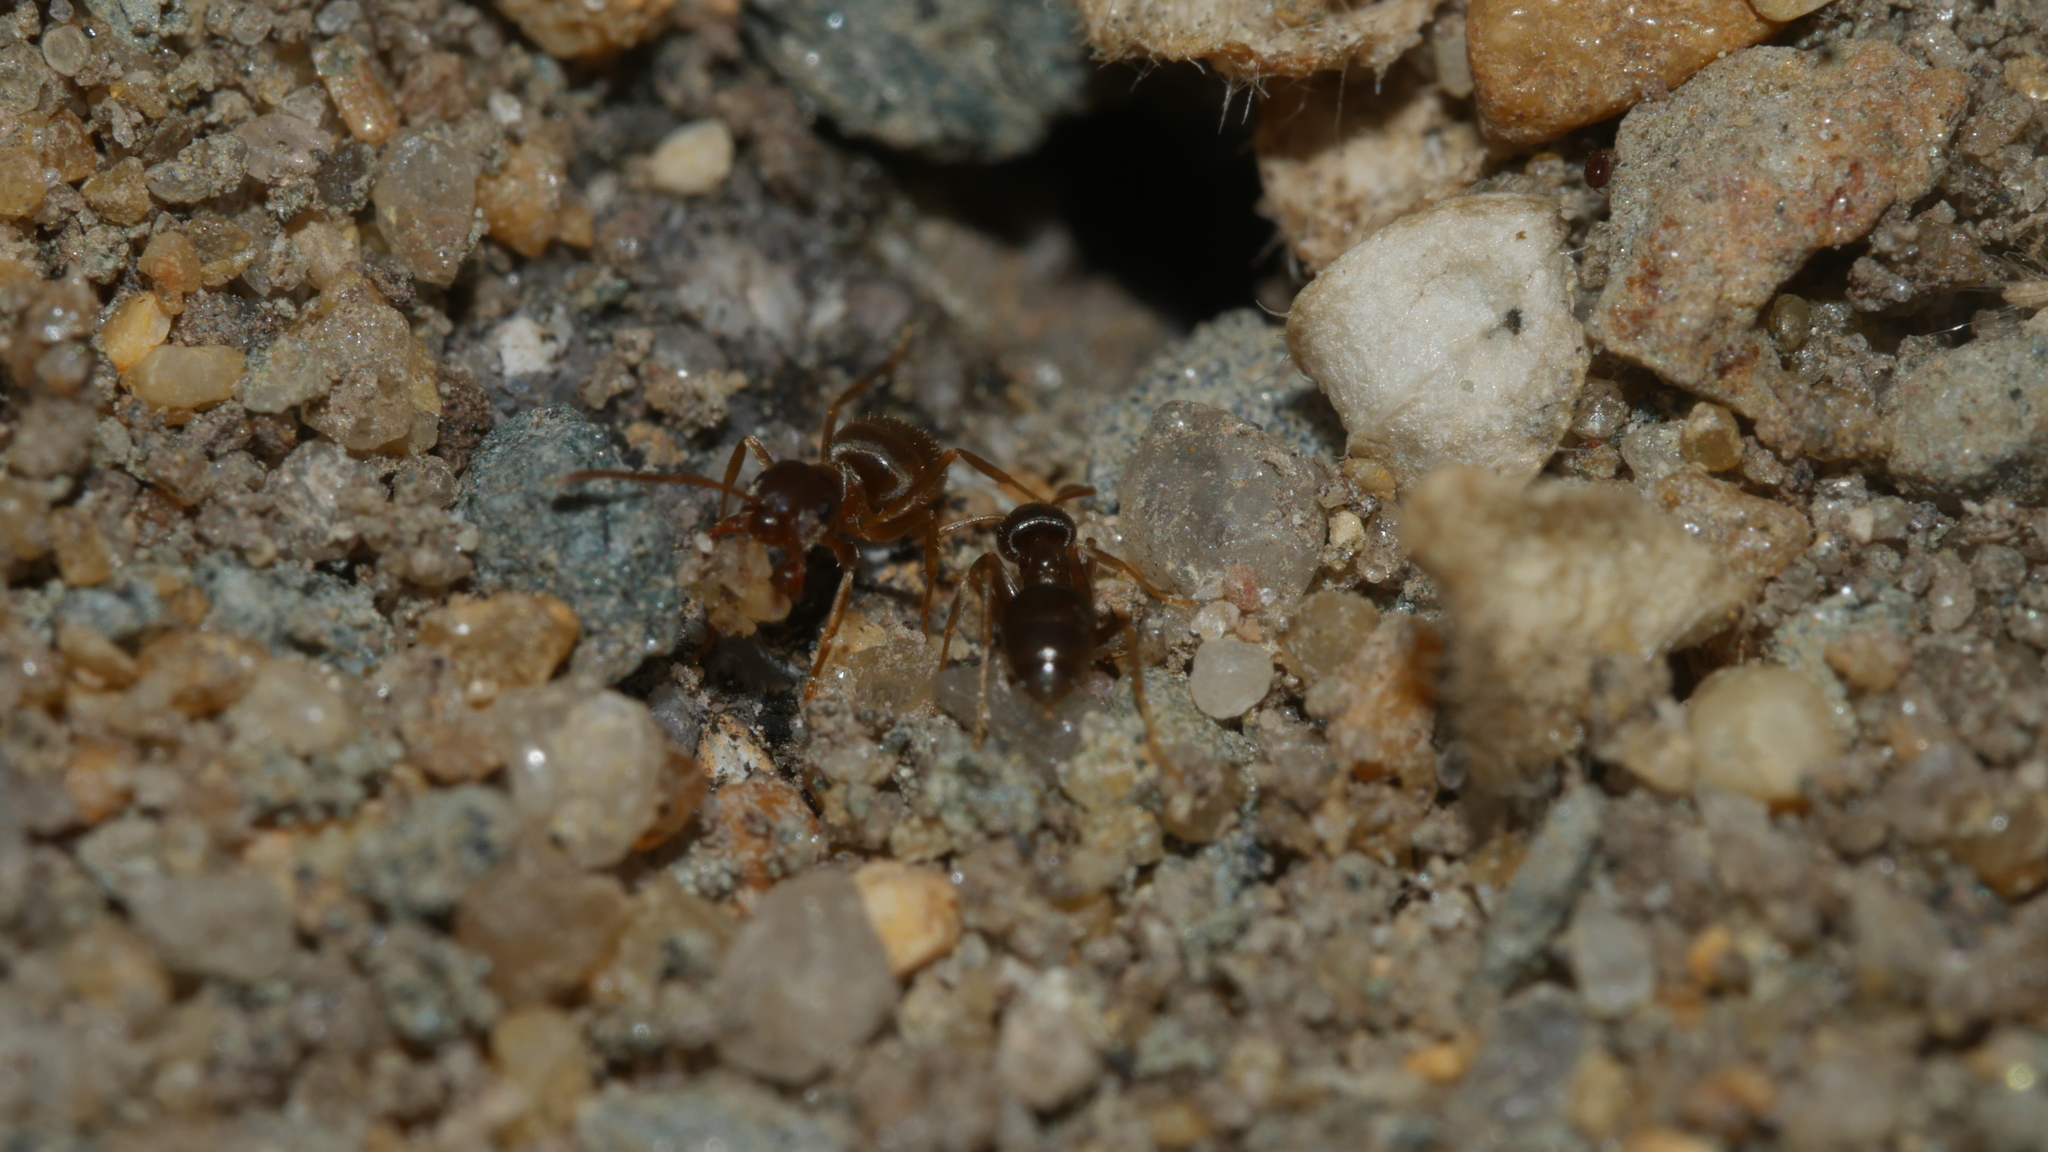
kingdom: Animalia
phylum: Arthropoda
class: Insecta
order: Hymenoptera
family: Formicidae
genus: Lasius
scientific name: Lasius neoniger
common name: Turfgrass ant
